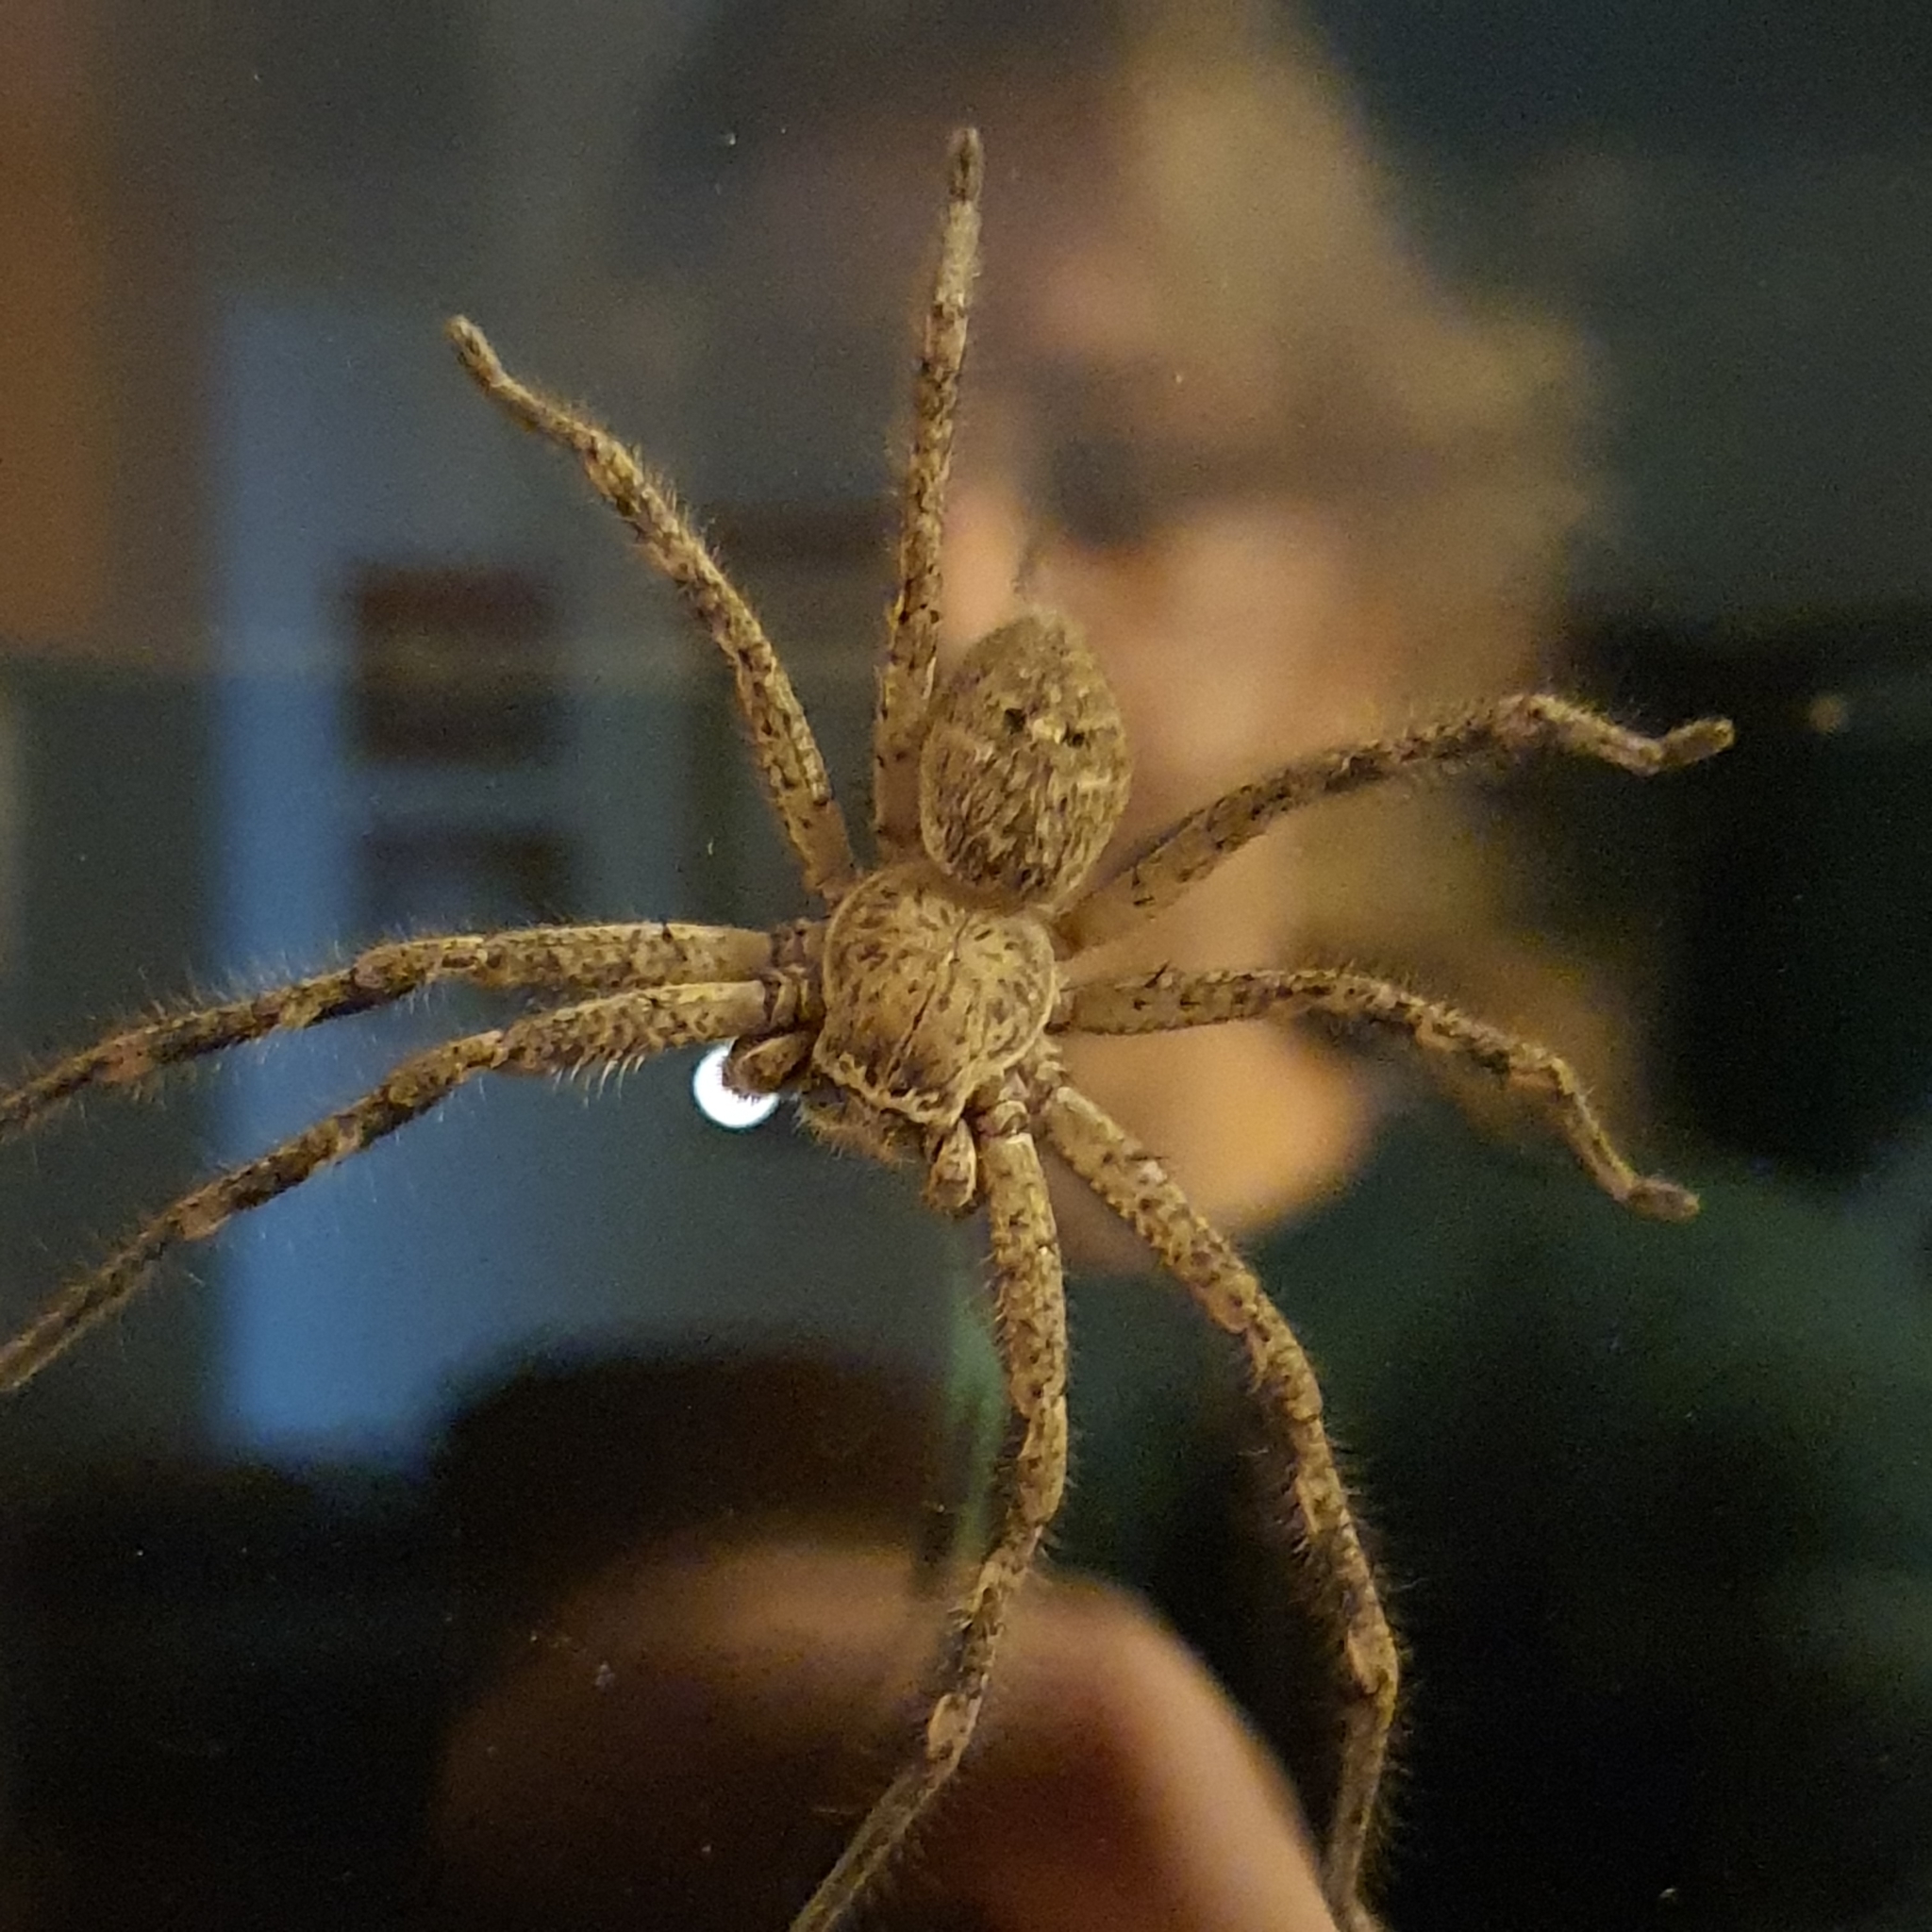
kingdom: Animalia
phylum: Arthropoda
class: Arachnida
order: Araneae
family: Sparassidae
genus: Neosparassus
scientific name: Neosparassus calligaster
